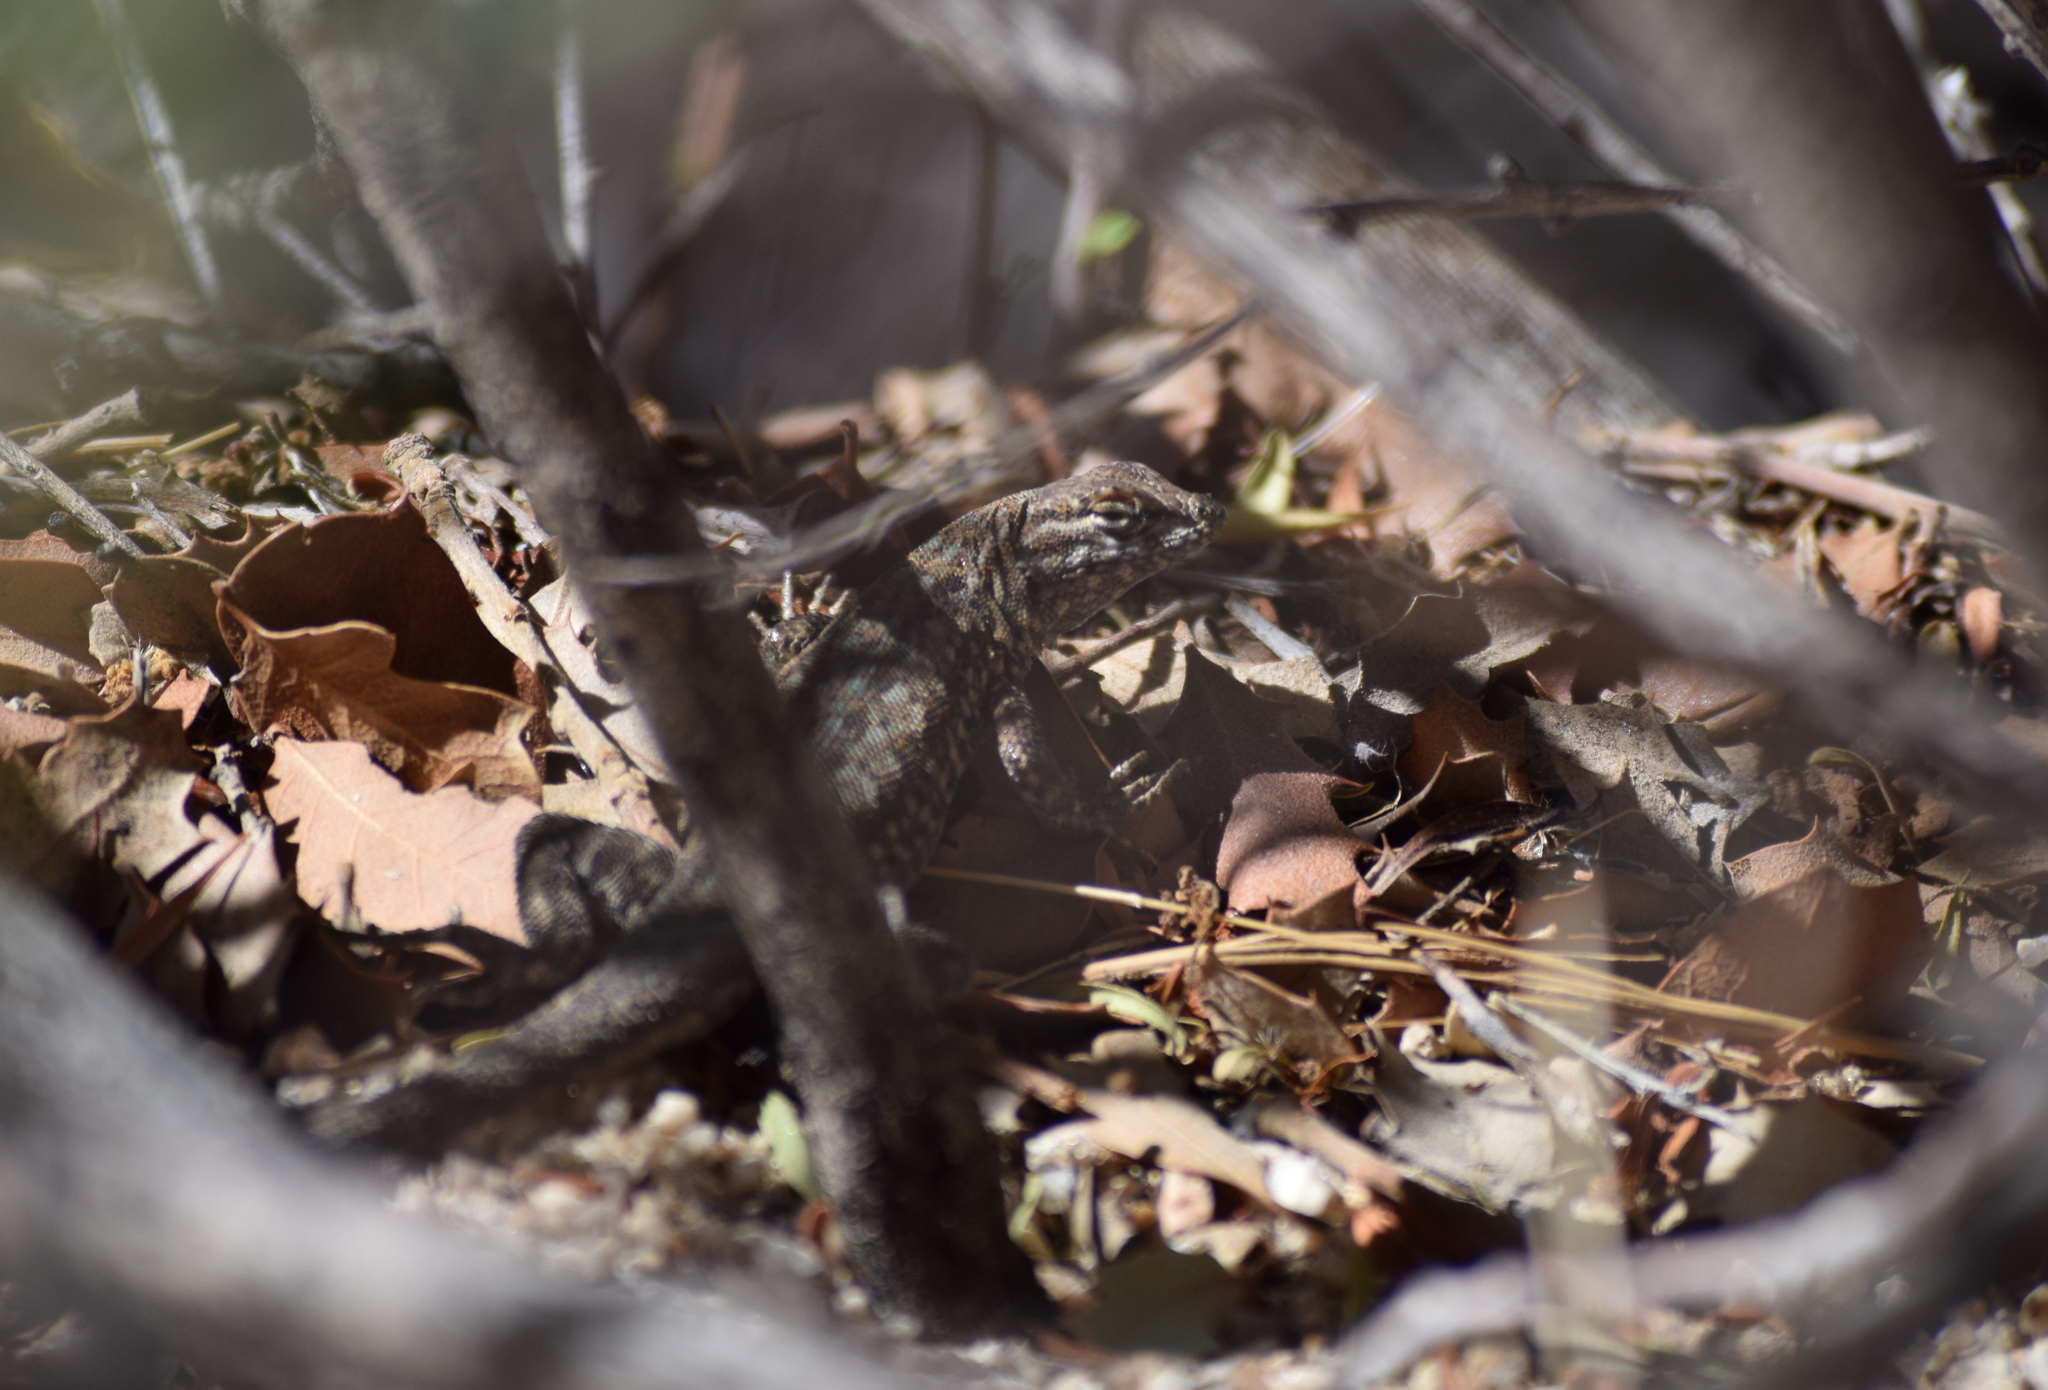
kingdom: Animalia
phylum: Chordata
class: Squamata
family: Phrynosomatidae
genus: Uta
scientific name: Uta stansburiana
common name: Side-blotched lizard
